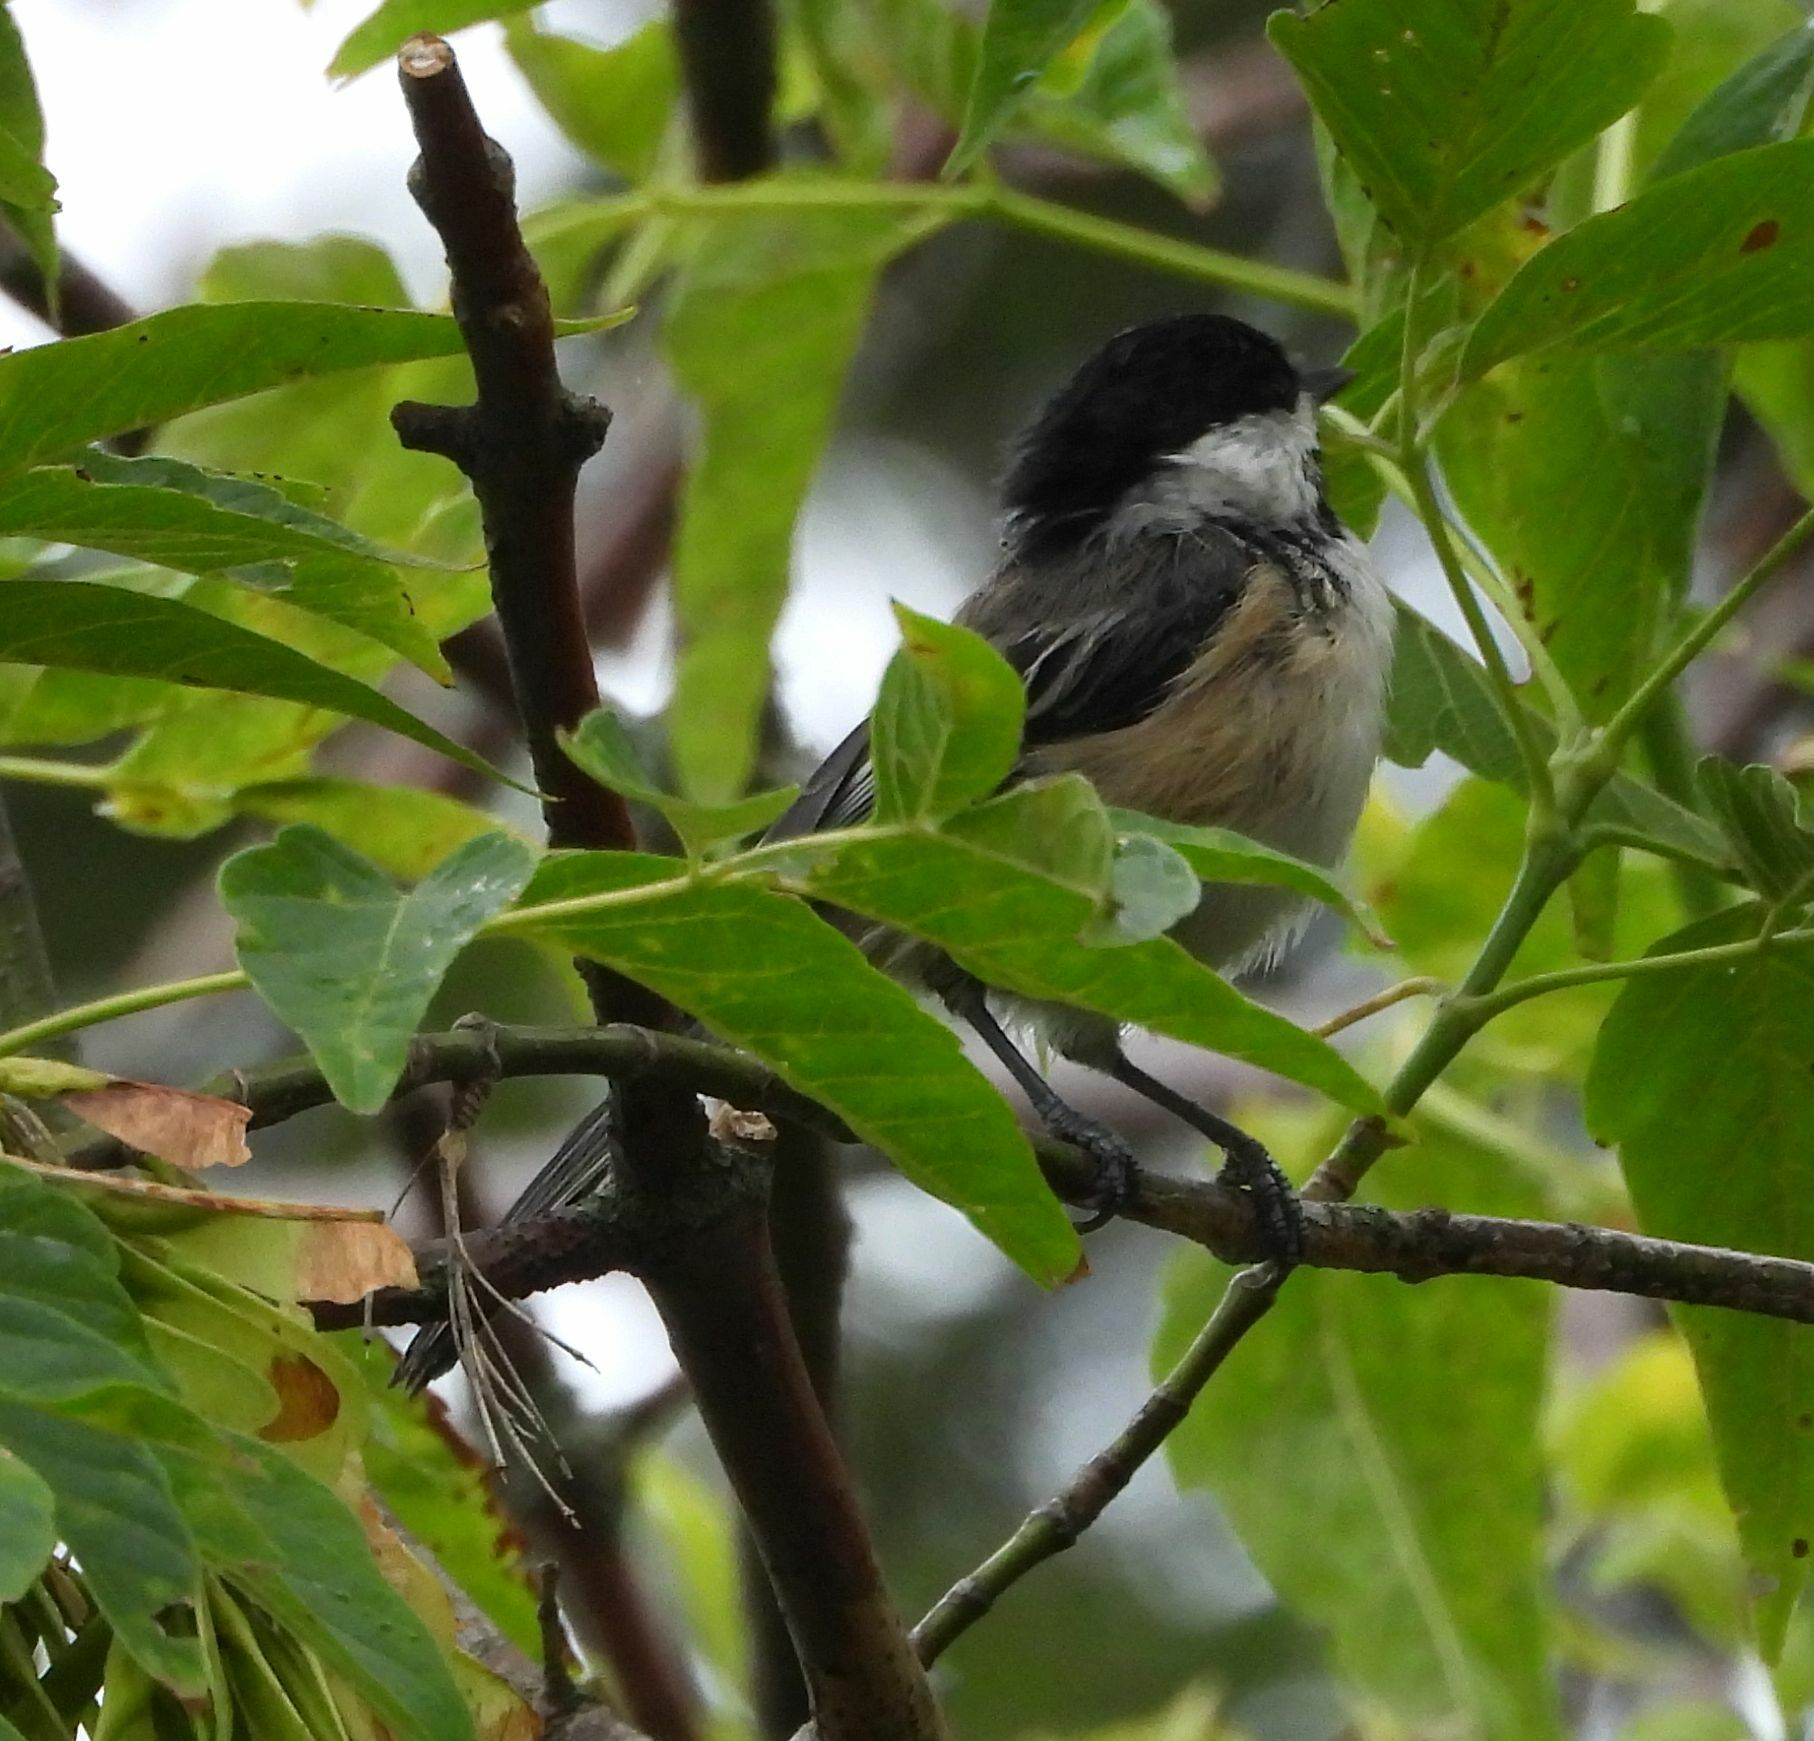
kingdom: Animalia
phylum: Chordata
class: Aves
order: Passeriformes
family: Paridae
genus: Poecile
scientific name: Poecile atricapillus
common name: Black-capped chickadee
